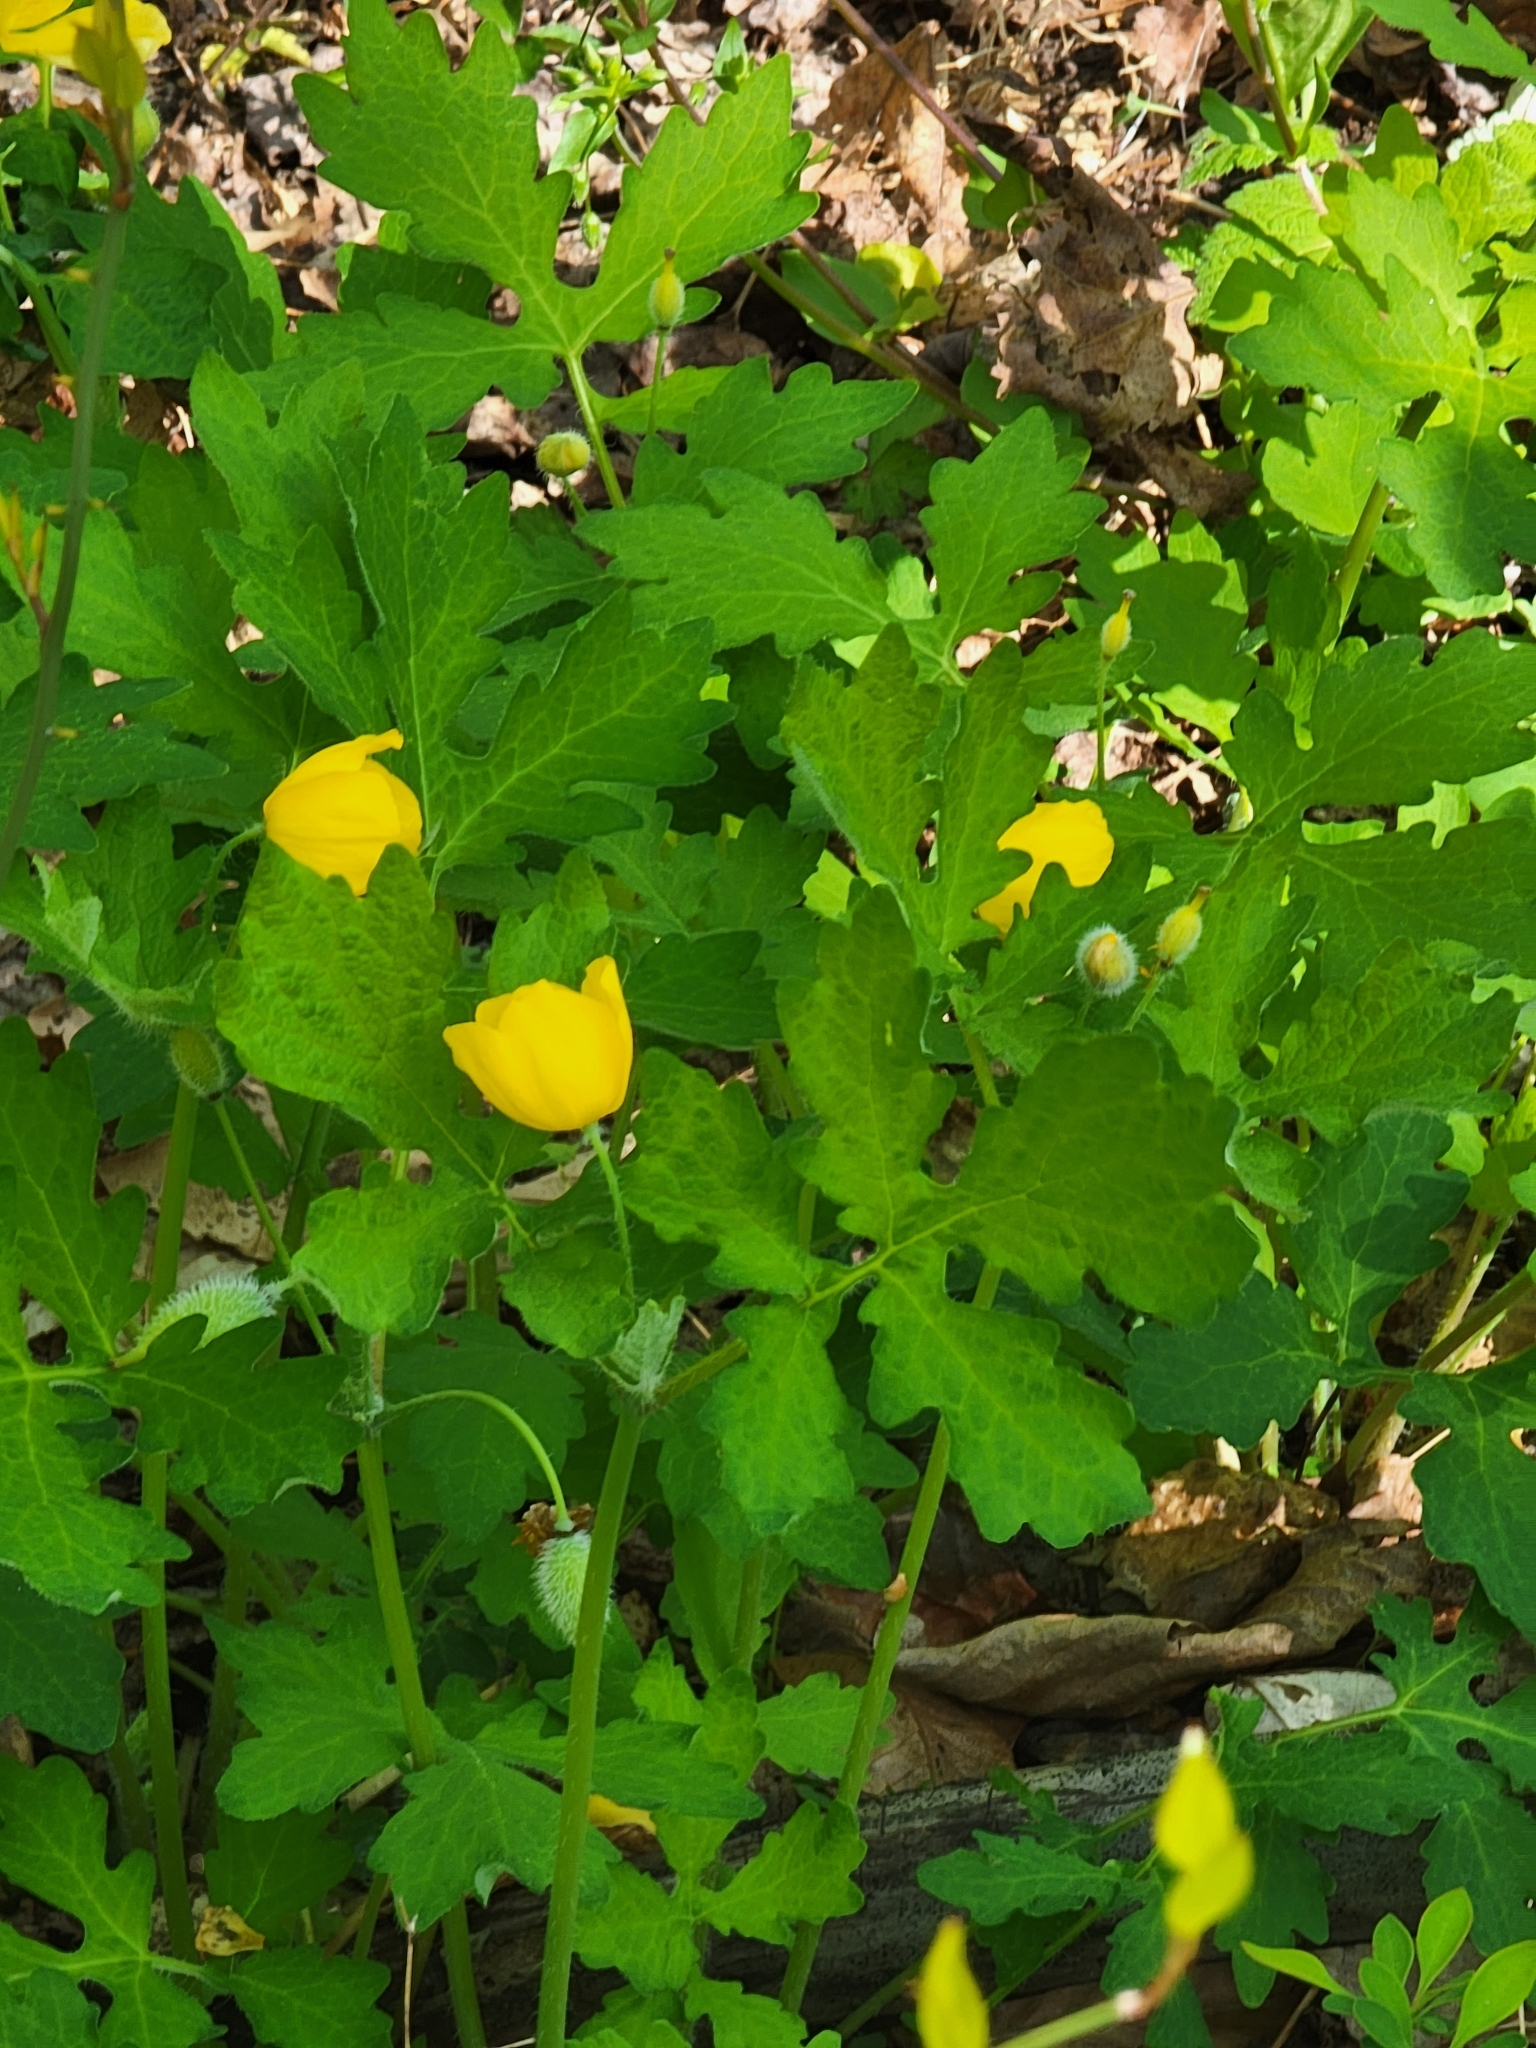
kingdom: Plantae
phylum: Tracheophyta
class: Magnoliopsida
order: Ranunculales
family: Papaveraceae
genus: Stylophorum
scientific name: Stylophorum diphyllum
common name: Celandine poppy
